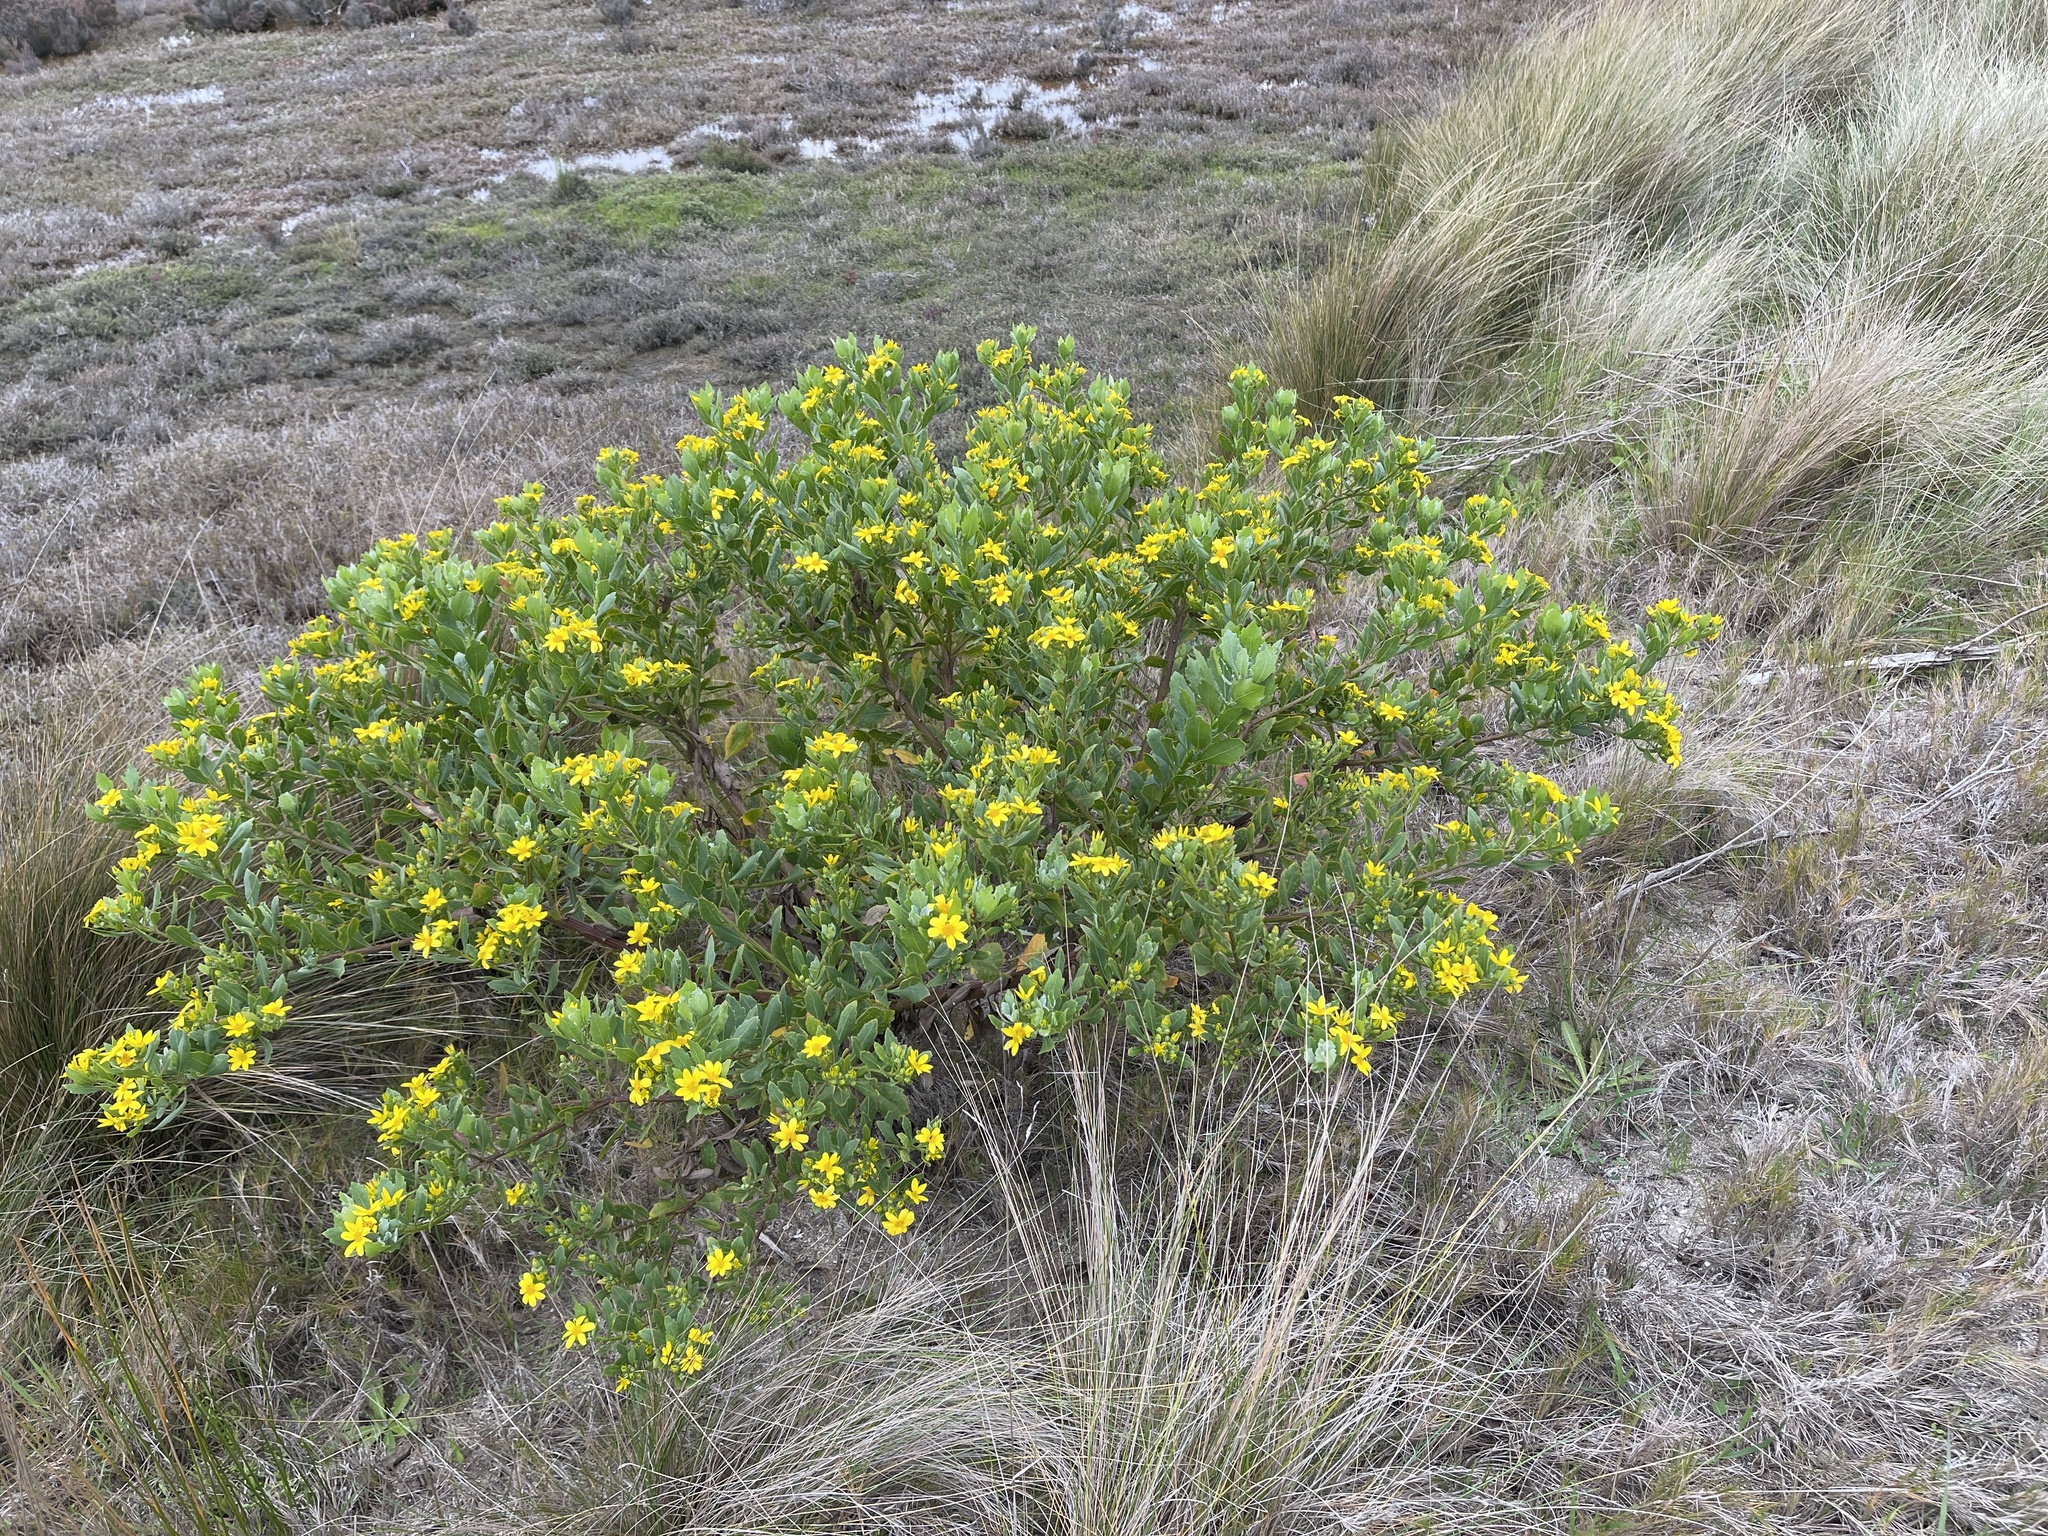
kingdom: Plantae
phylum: Tracheophyta
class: Magnoliopsida
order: Asterales
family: Asteraceae
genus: Osteospermum
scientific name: Osteospermum moniliferum
